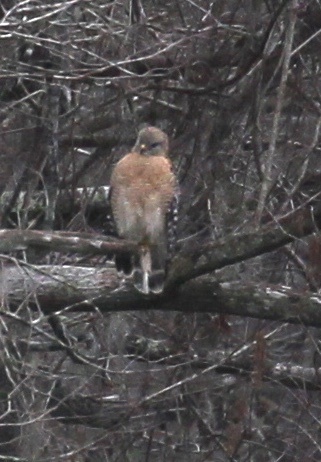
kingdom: Animalia
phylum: Chordata
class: Aves
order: Accipitriformes
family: Accipitridae
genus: Buteo
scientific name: Buteo lineatus
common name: Red-shouldered hawk
